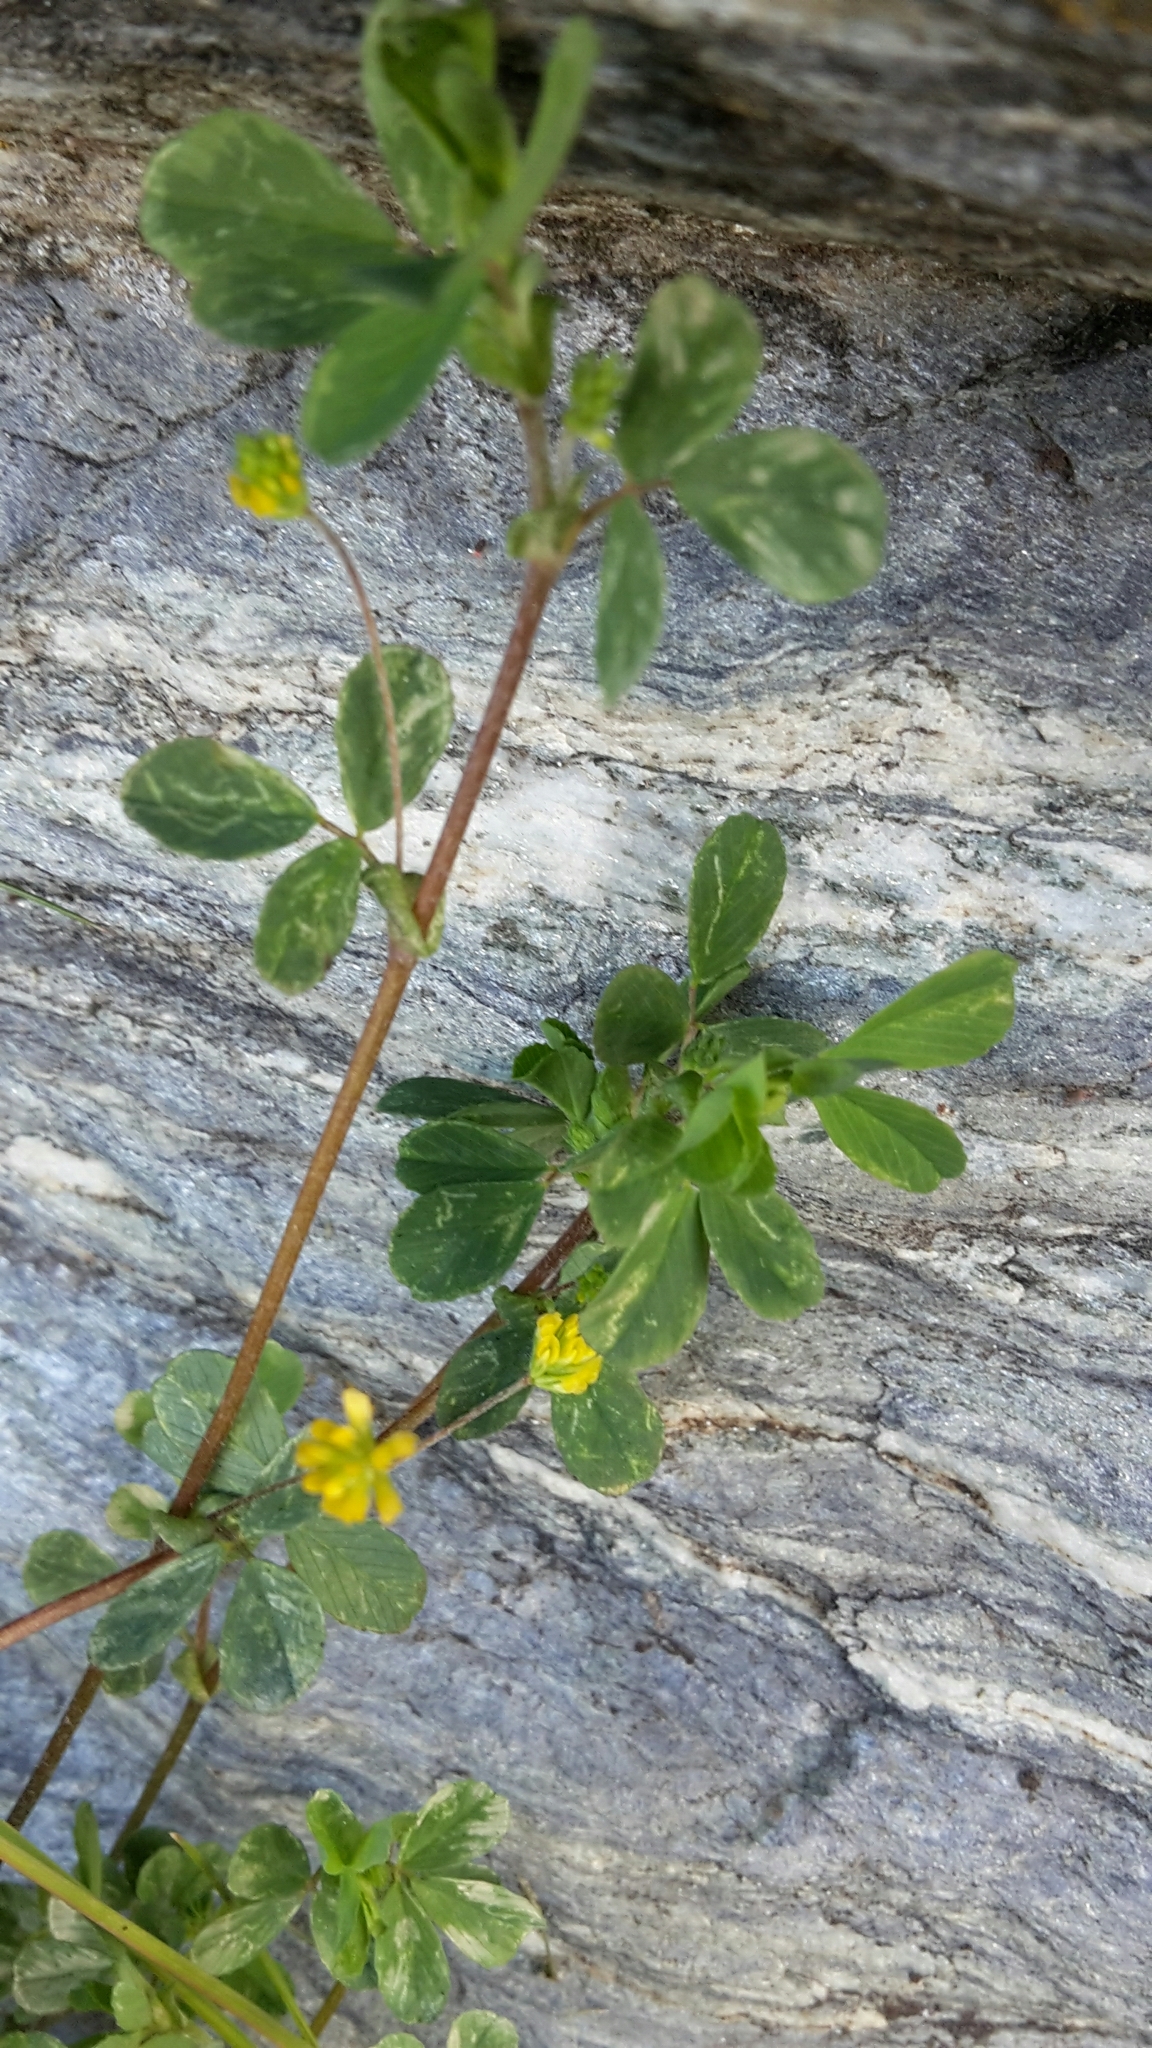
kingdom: Plantae
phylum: Tracheophyta
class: Magnoliopsida
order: Fabales
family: Fabaceae
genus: Trifolium
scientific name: Trifolium dubium
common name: Suckling clover
